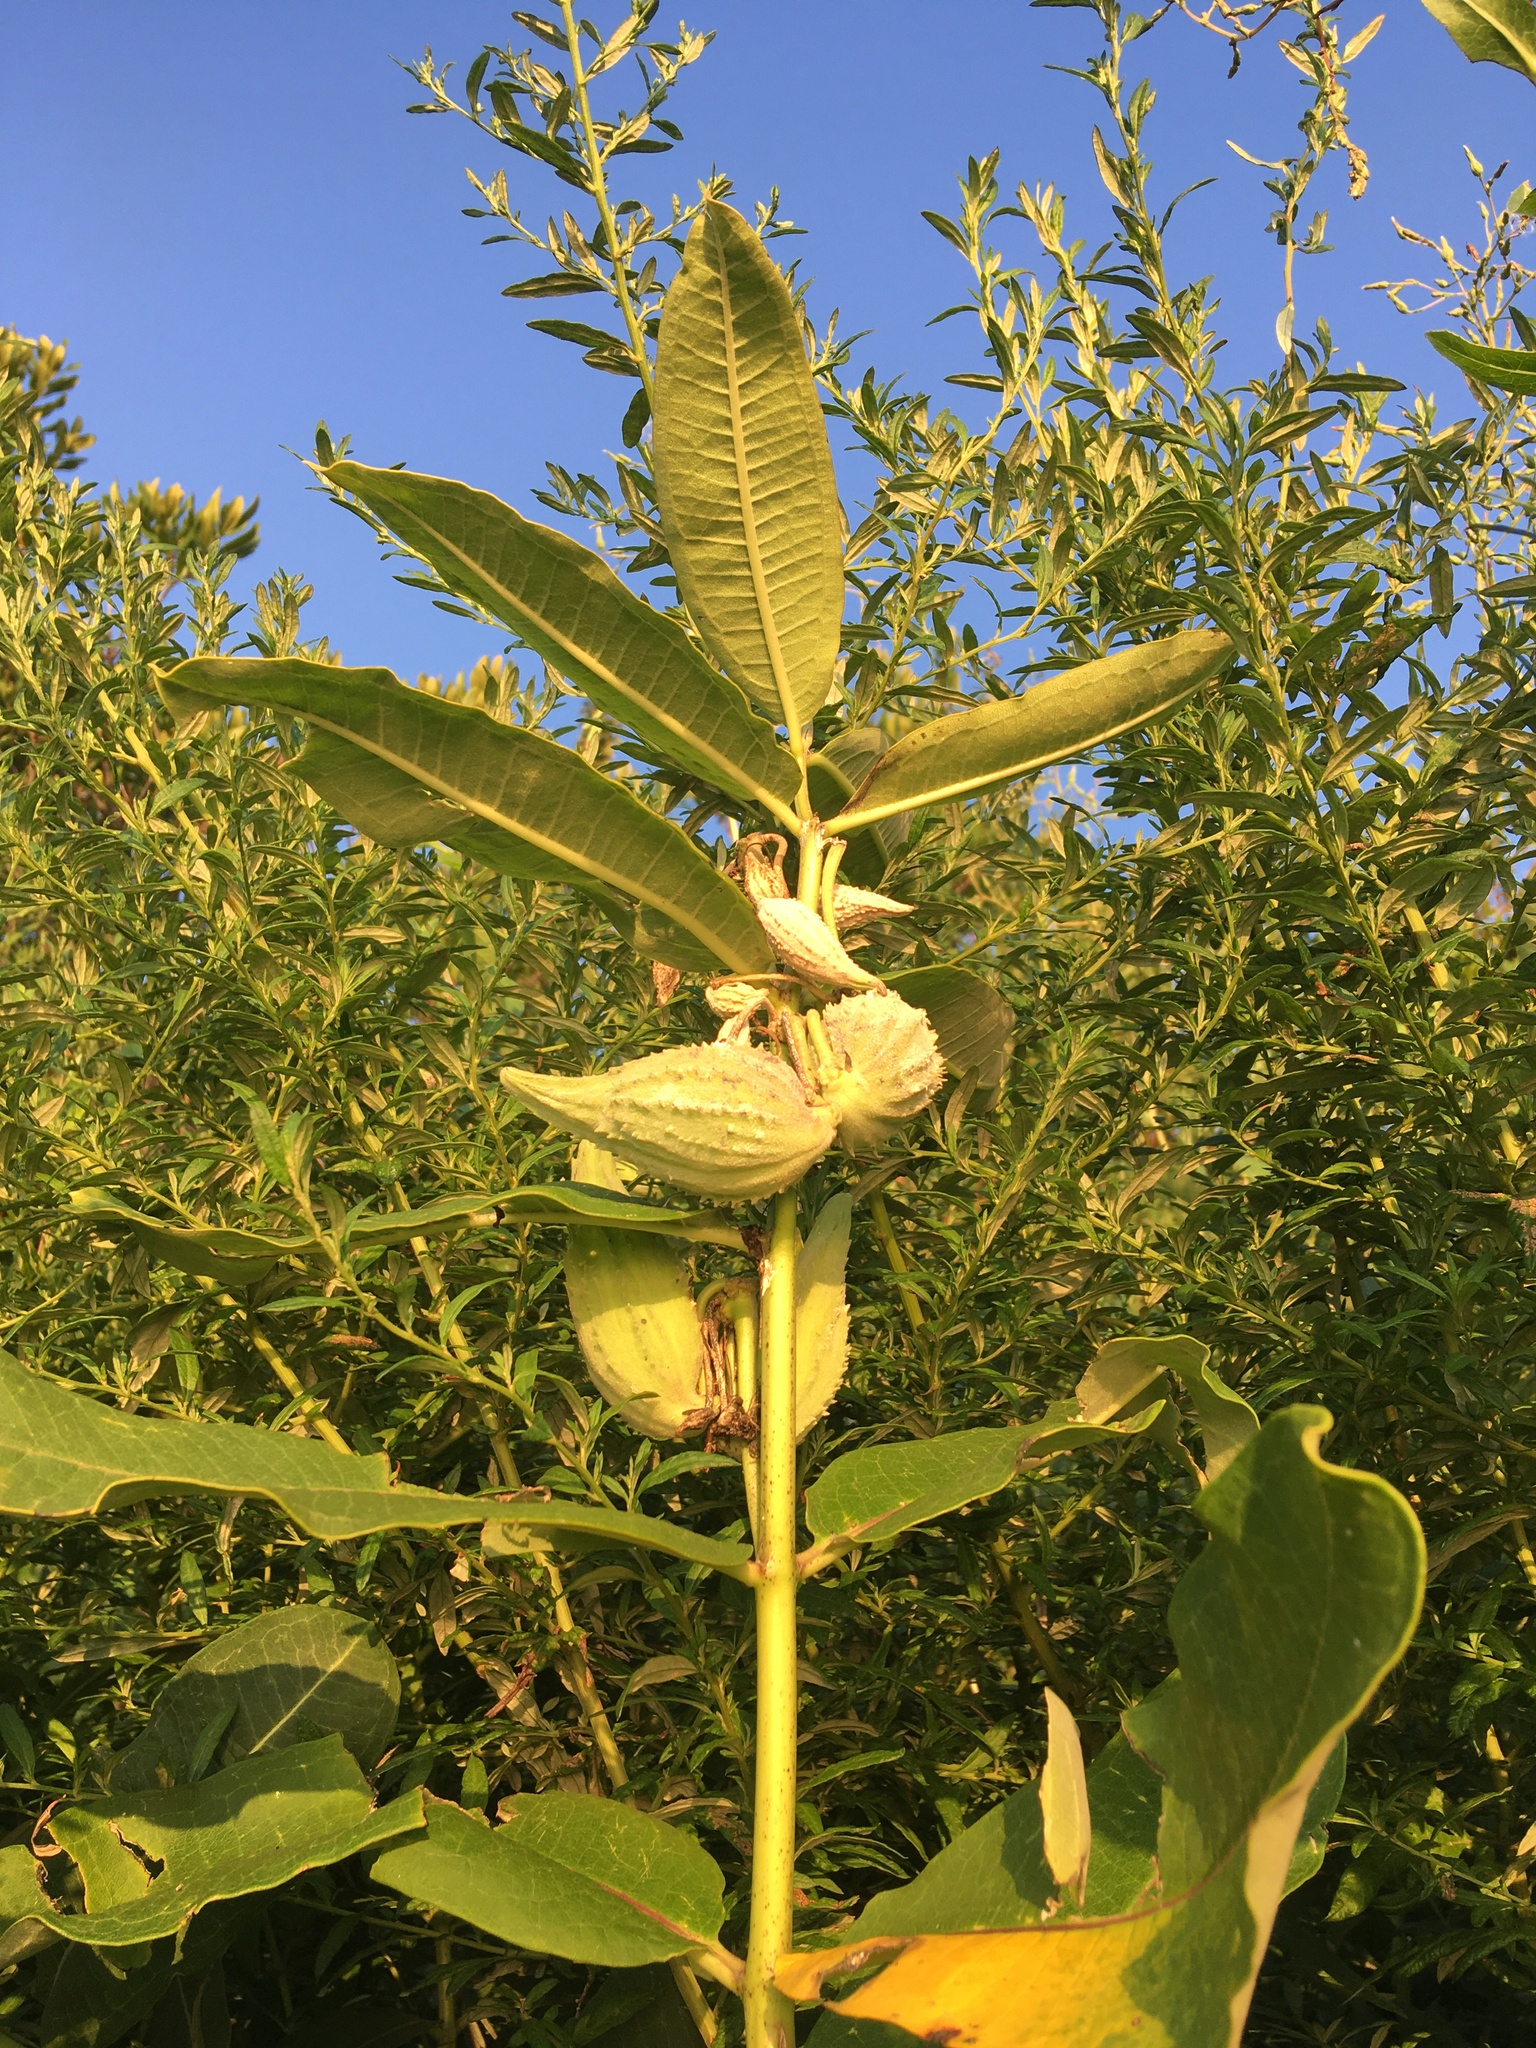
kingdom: Plantae
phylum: Tracheophyta
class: Magnoliopsida
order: Gentianales
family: Apocynaceae
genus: Asclepias
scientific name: Asclepias syriaca
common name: Common milkweed
